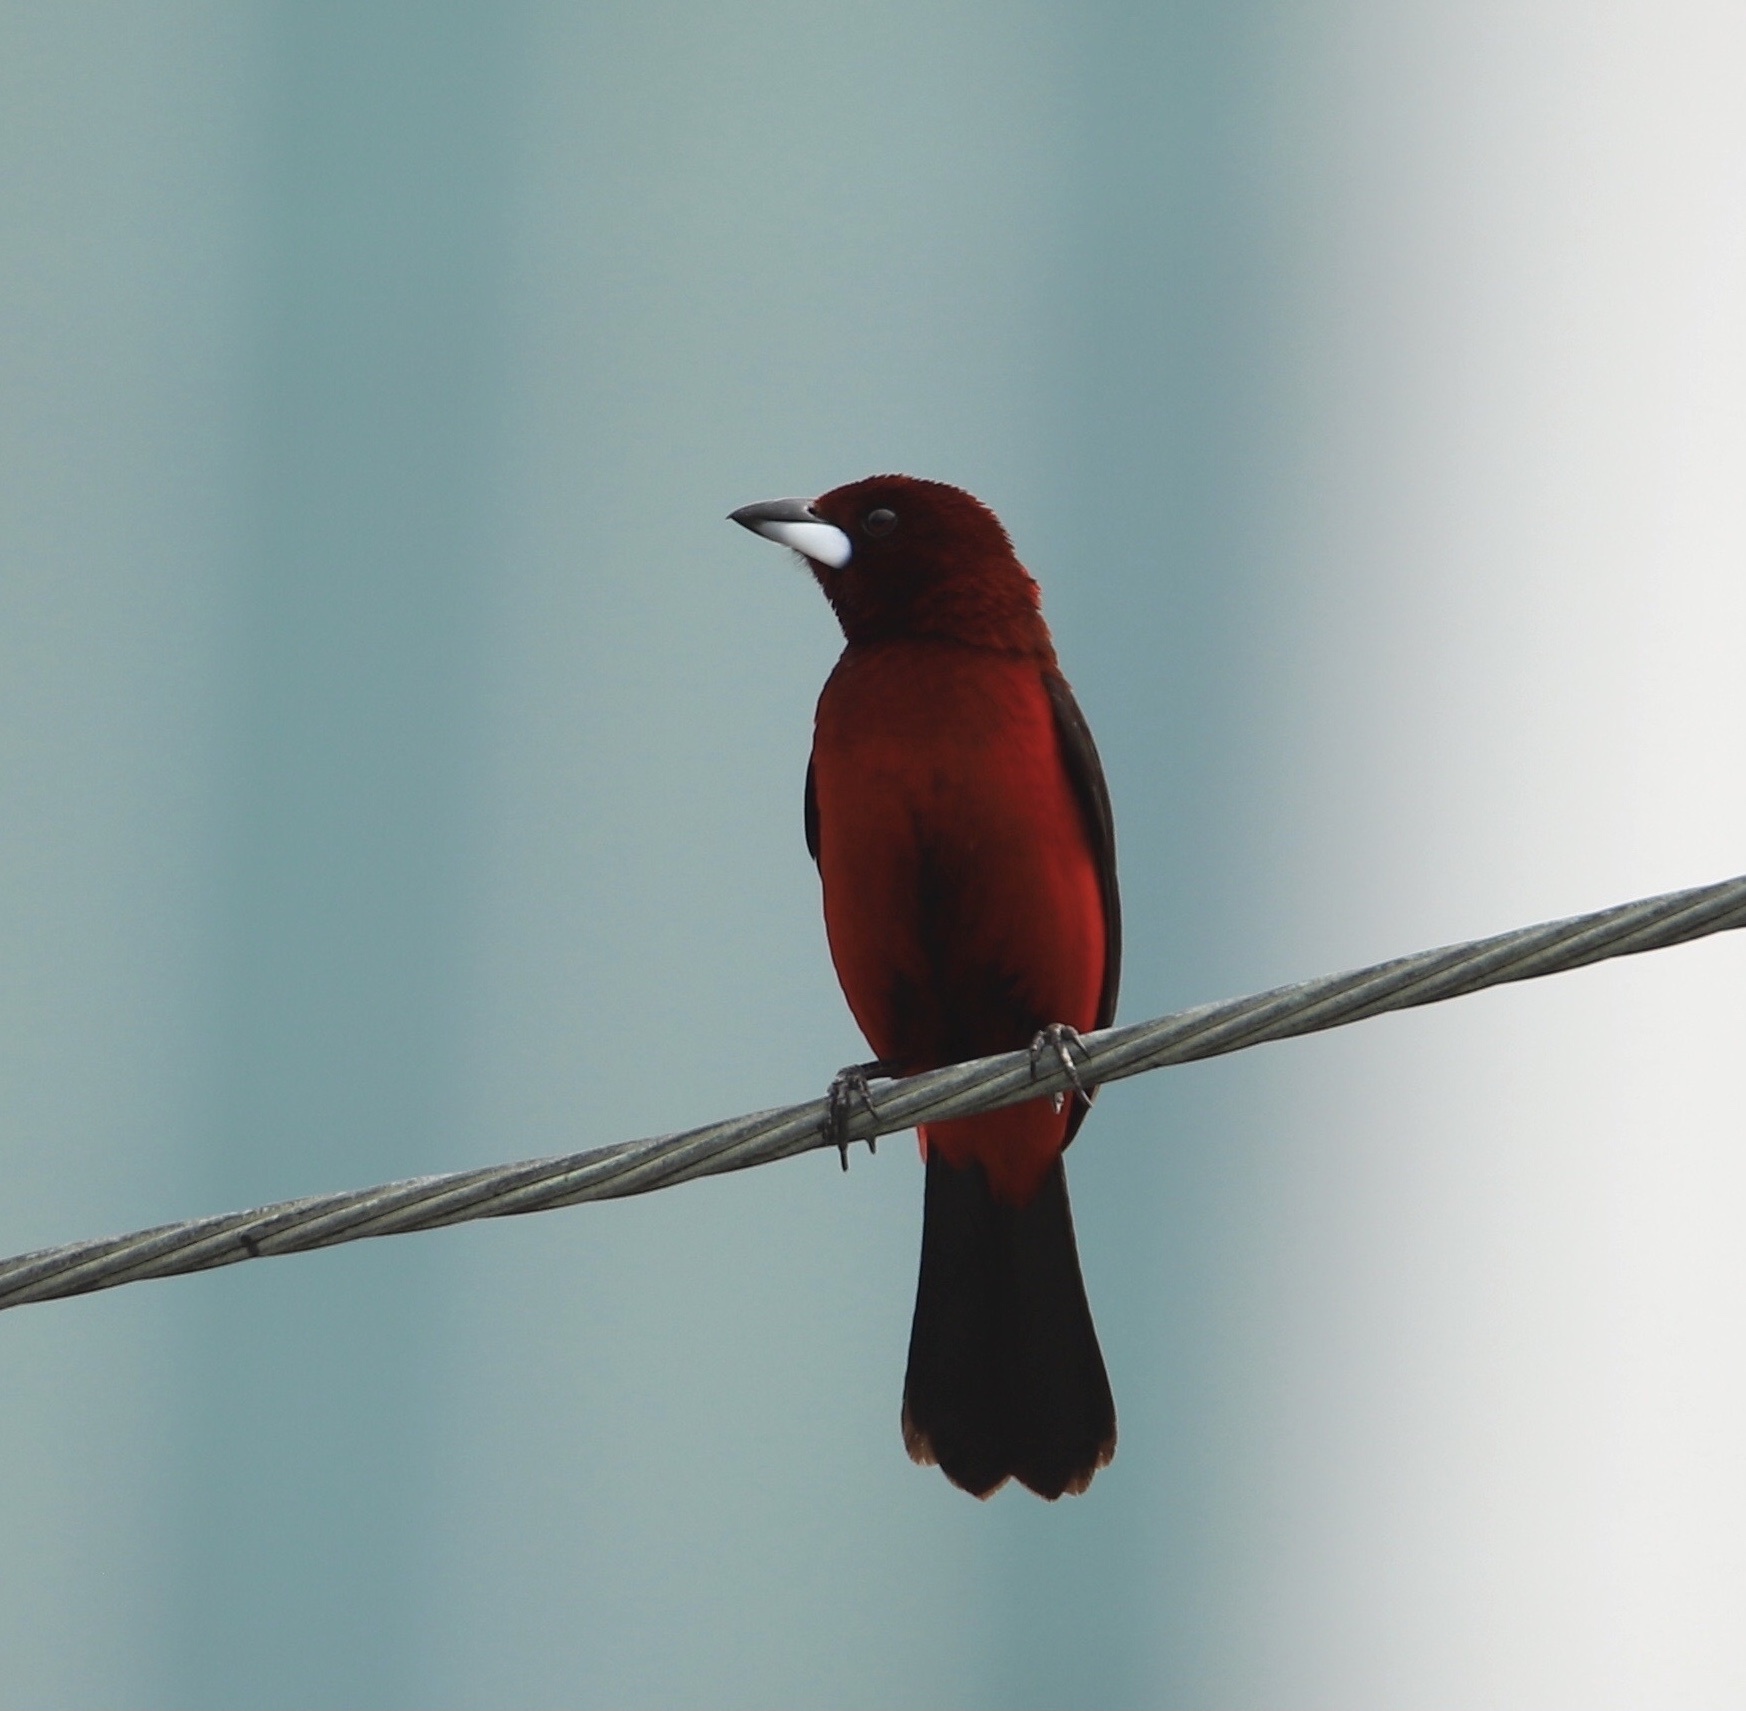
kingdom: Animalia
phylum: Chordata
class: Aves
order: Passeriformes
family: Thraupidae
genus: Ramphocelus
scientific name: Ramphocelus dimidiatus
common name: Crimson-backed tanager
